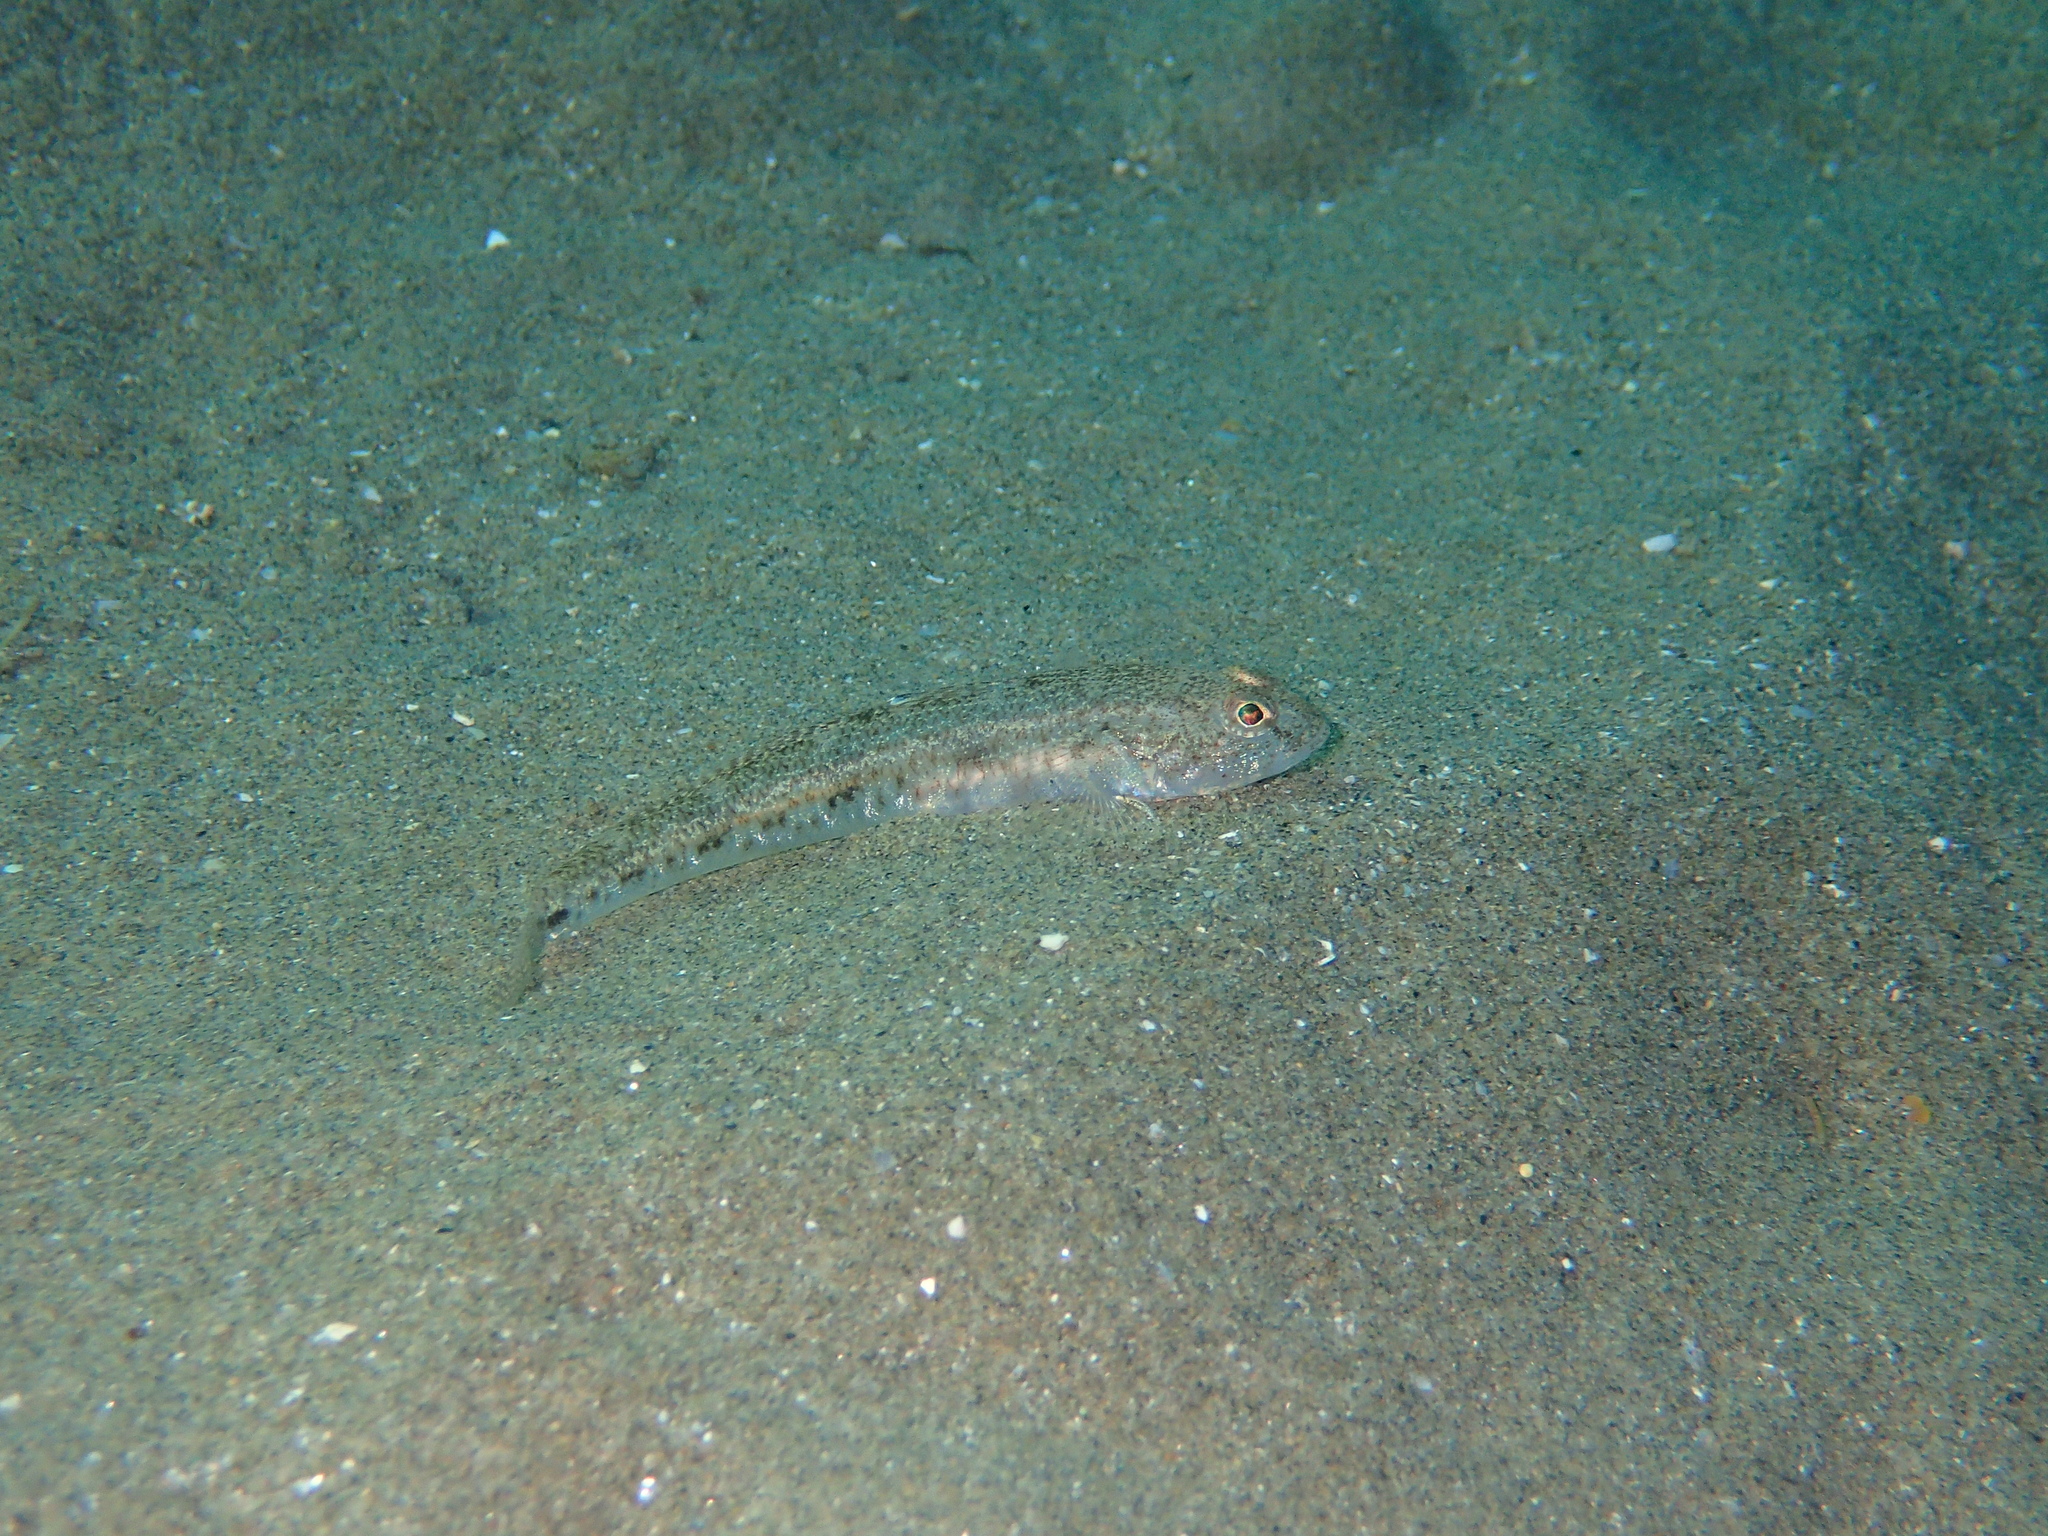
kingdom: Animalia
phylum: Chordata
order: Perciformes
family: Gobiidae
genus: Pomatoschistus
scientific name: Pomatoschistus minutus
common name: Sand goby
